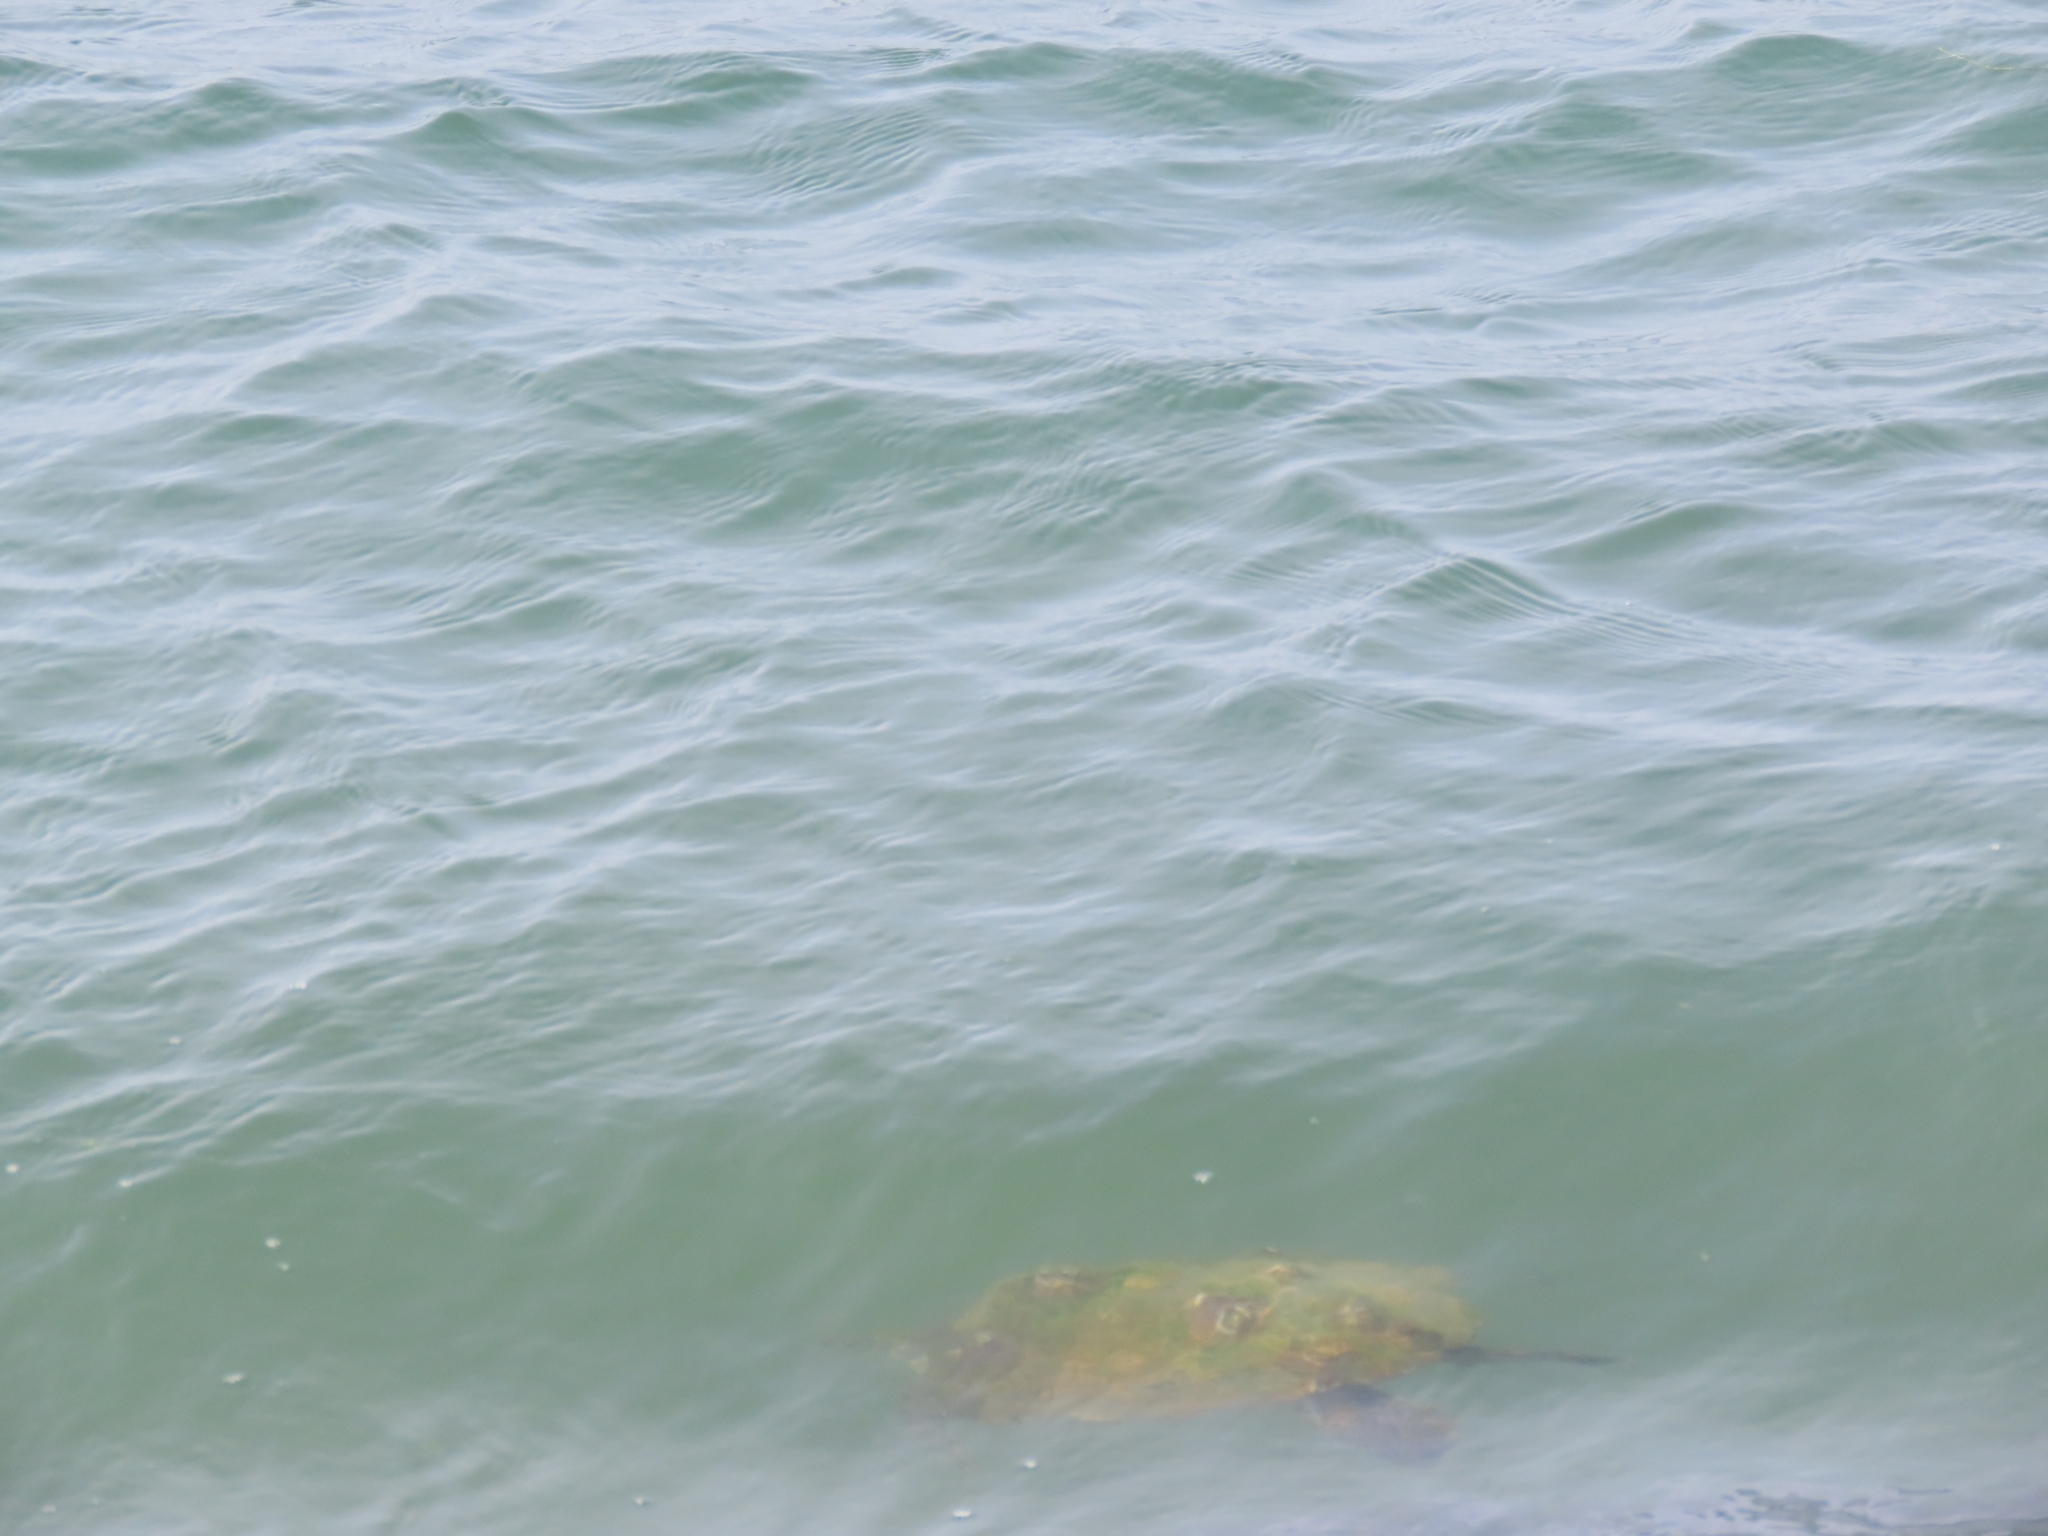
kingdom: Animalia
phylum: Chordata
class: Testudines
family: Cheloniidae
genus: Chelonia
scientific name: Chelonia mydas
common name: Green turtle
